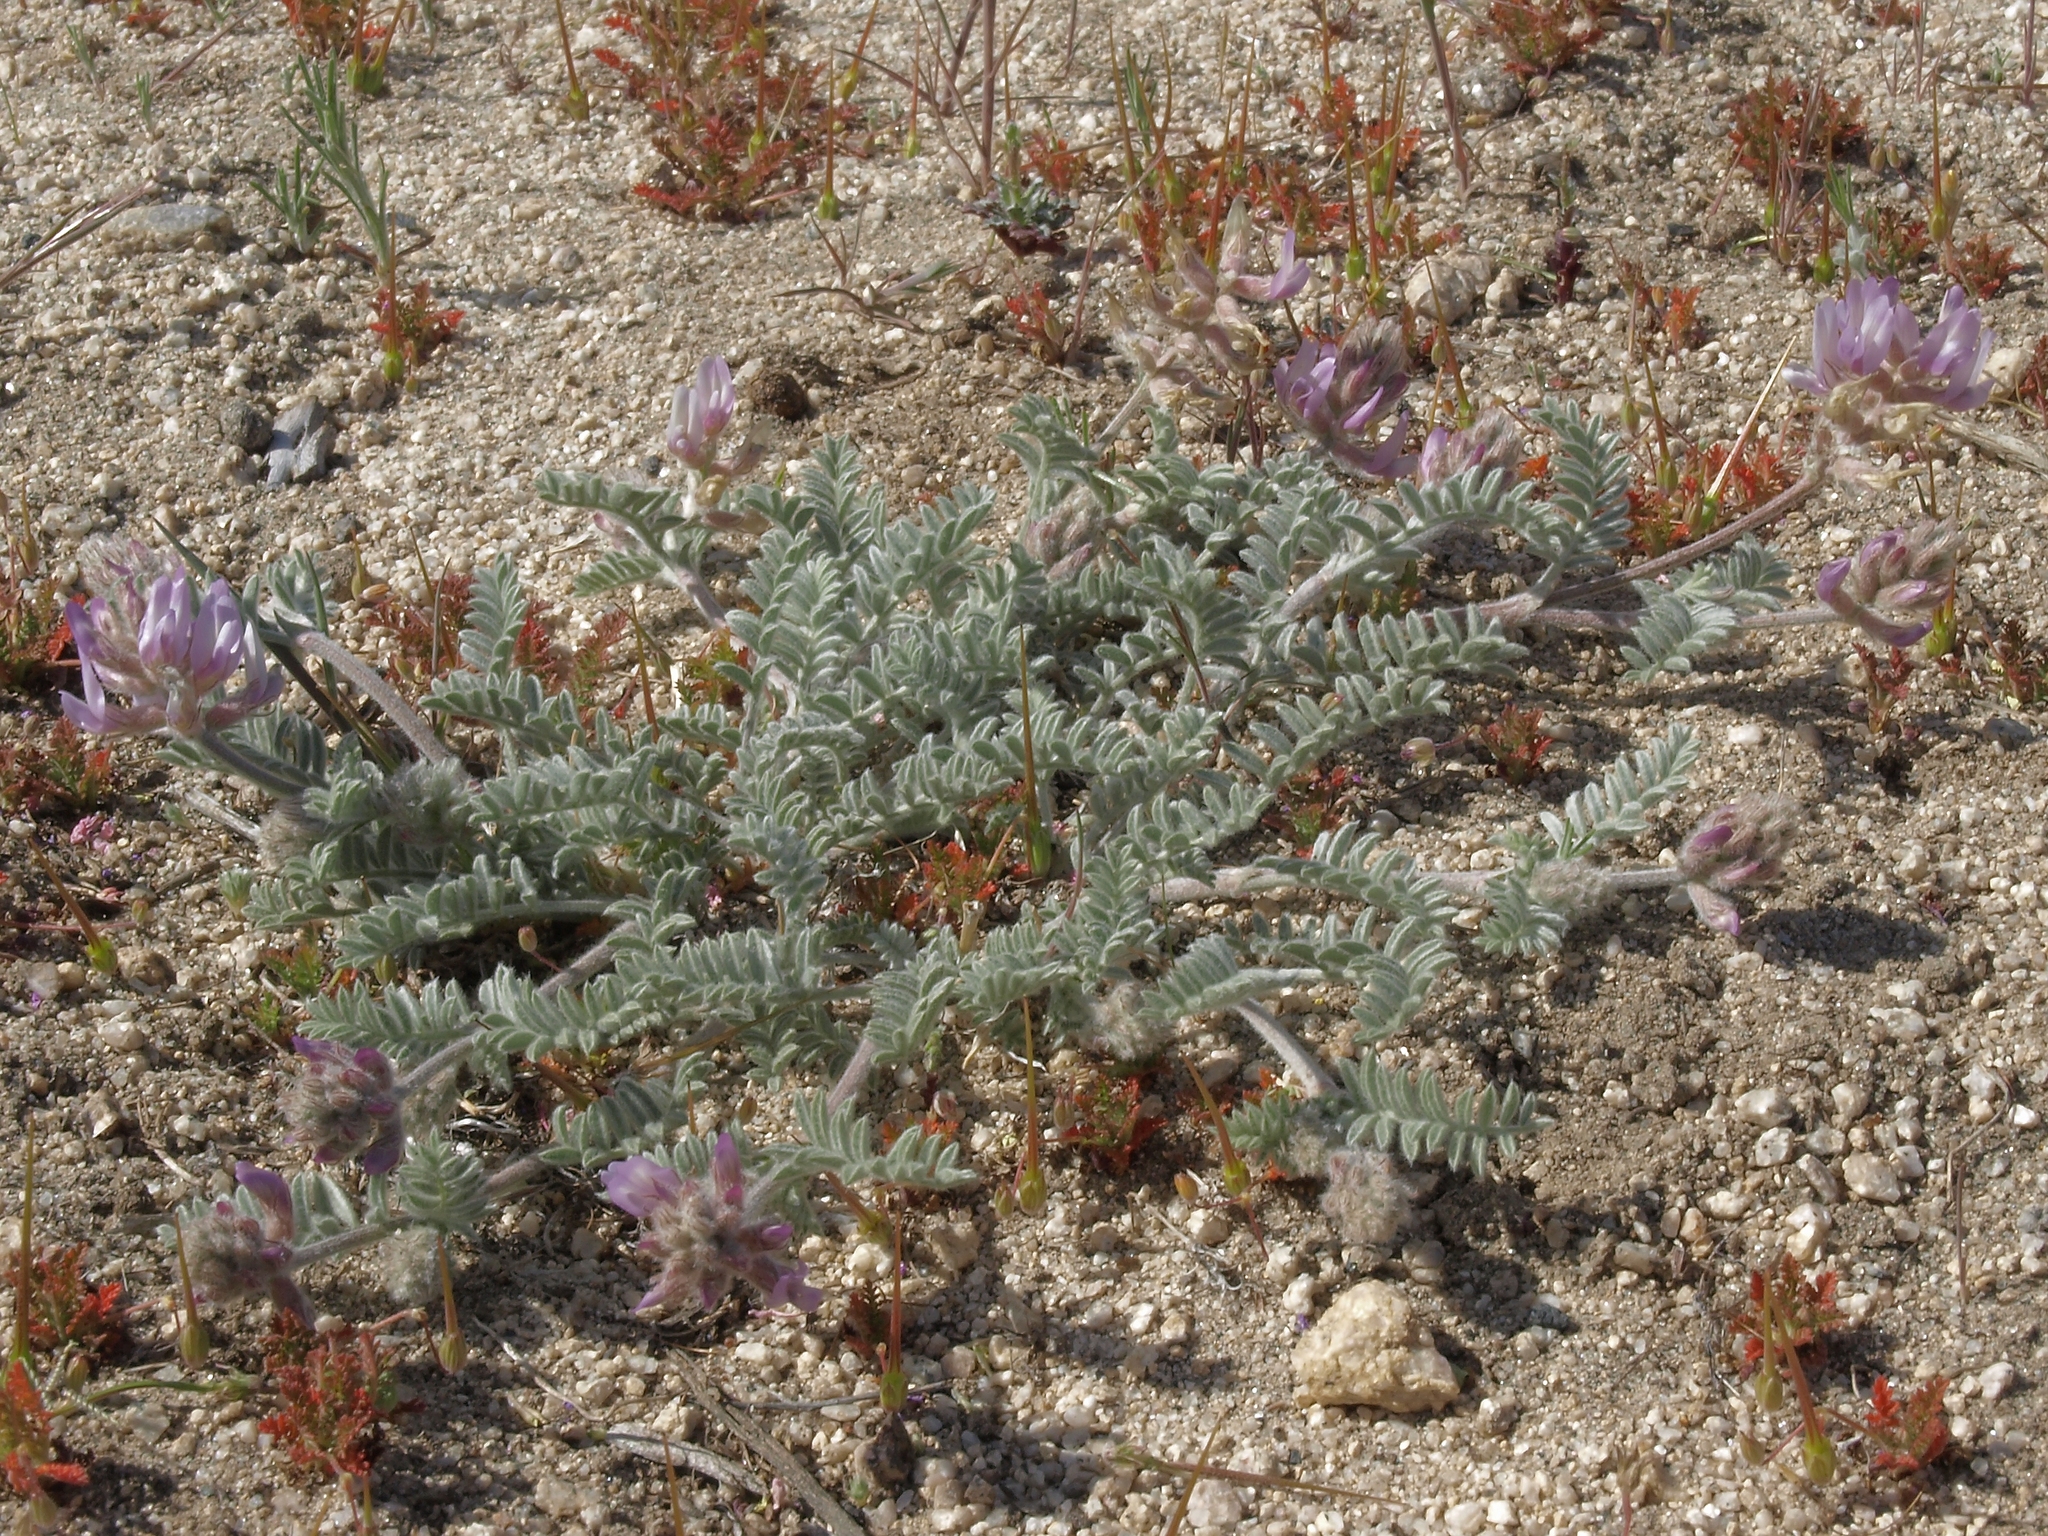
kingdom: Plantae
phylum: Tracheophyta
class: Magnoliopsida
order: Fabales
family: Fabaceae
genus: Astragalus
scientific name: Astragalus andersonii
